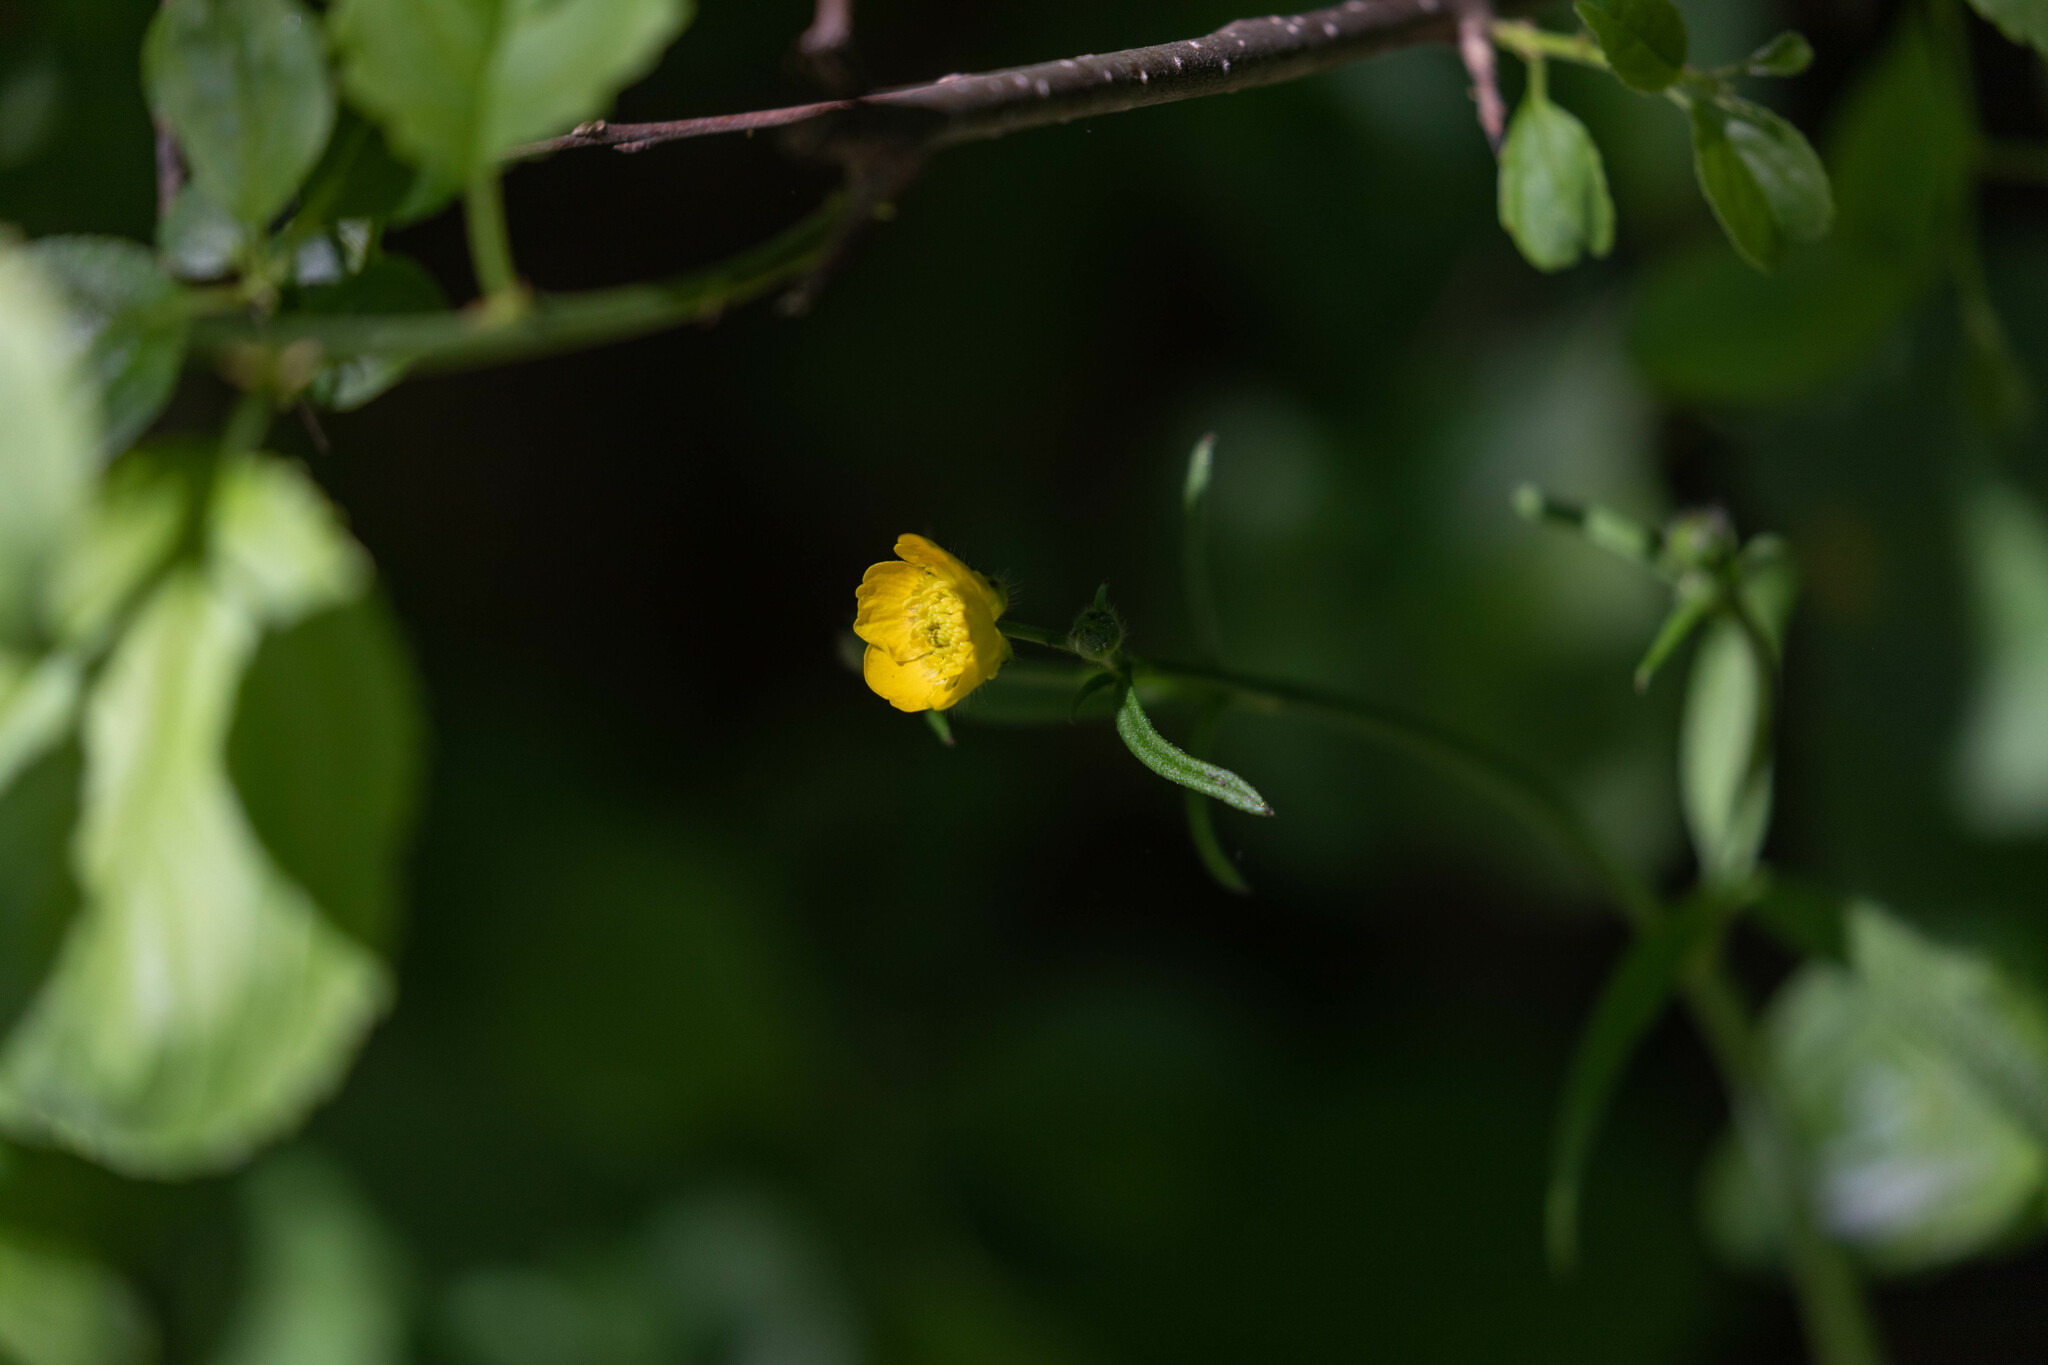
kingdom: Plantae
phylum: Tracheophyta
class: Magnoliopsida
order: Ranunculales
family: Ranunculaceae
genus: Ranunculus
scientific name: Ranunculus acris
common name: Meadow buttercup
